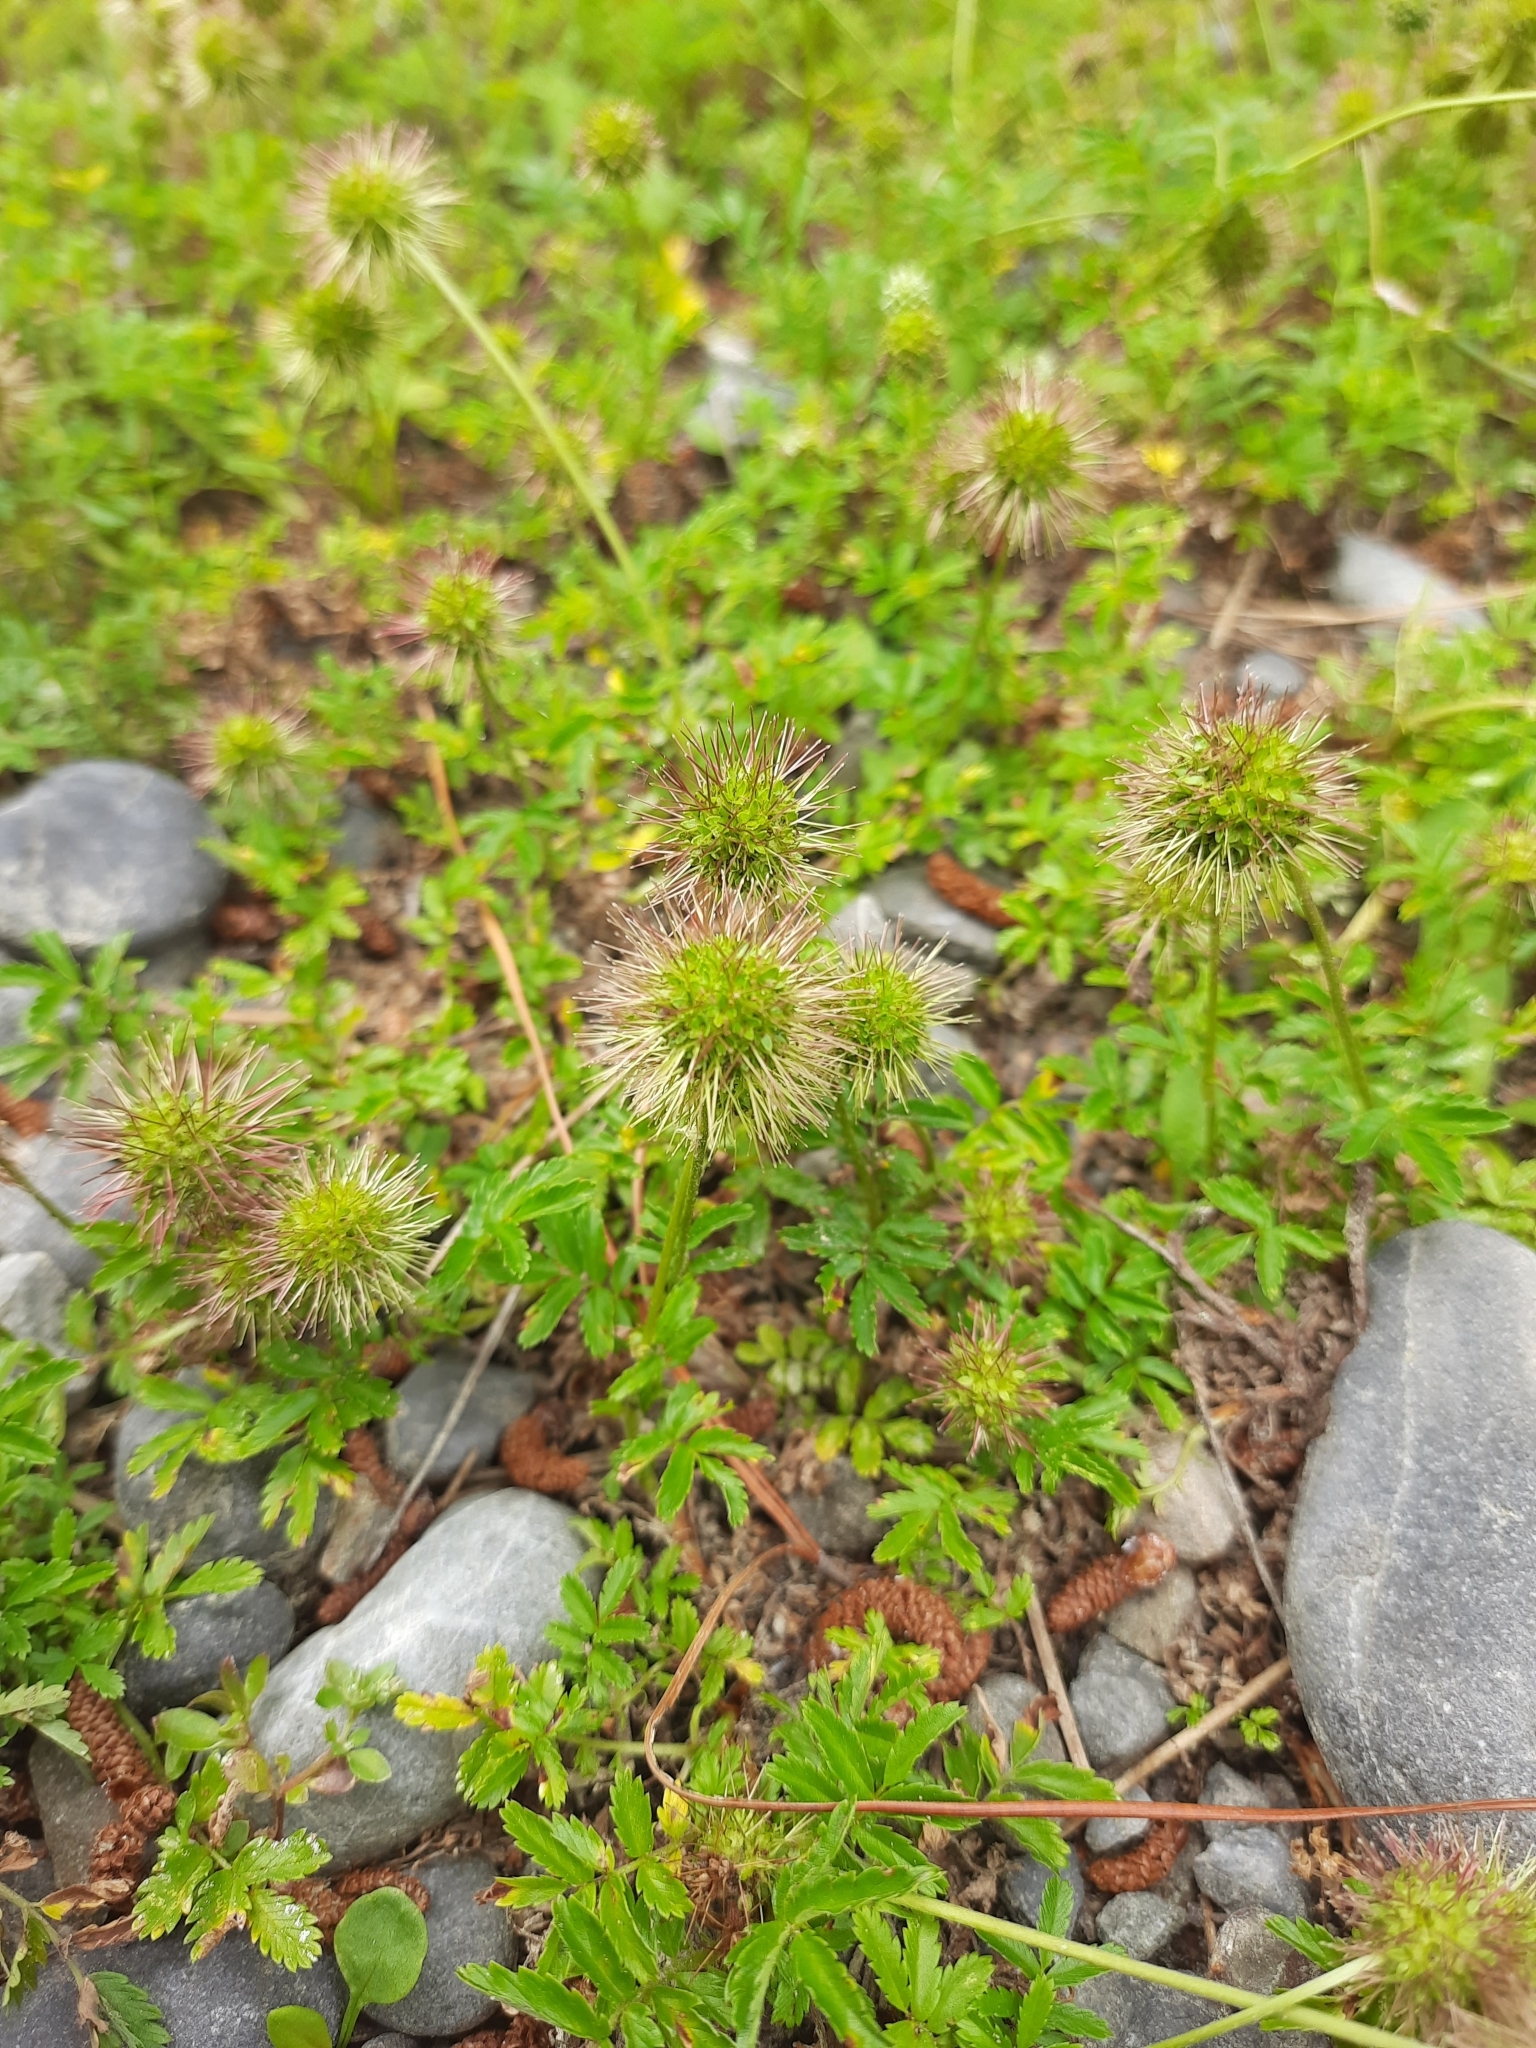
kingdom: Plantae
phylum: Tracheophyta
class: Magnoliopsida
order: Rosales
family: Rosaceae
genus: Acaena
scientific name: Acaena novae-zelandiae
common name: Pirri-pirri-bur
